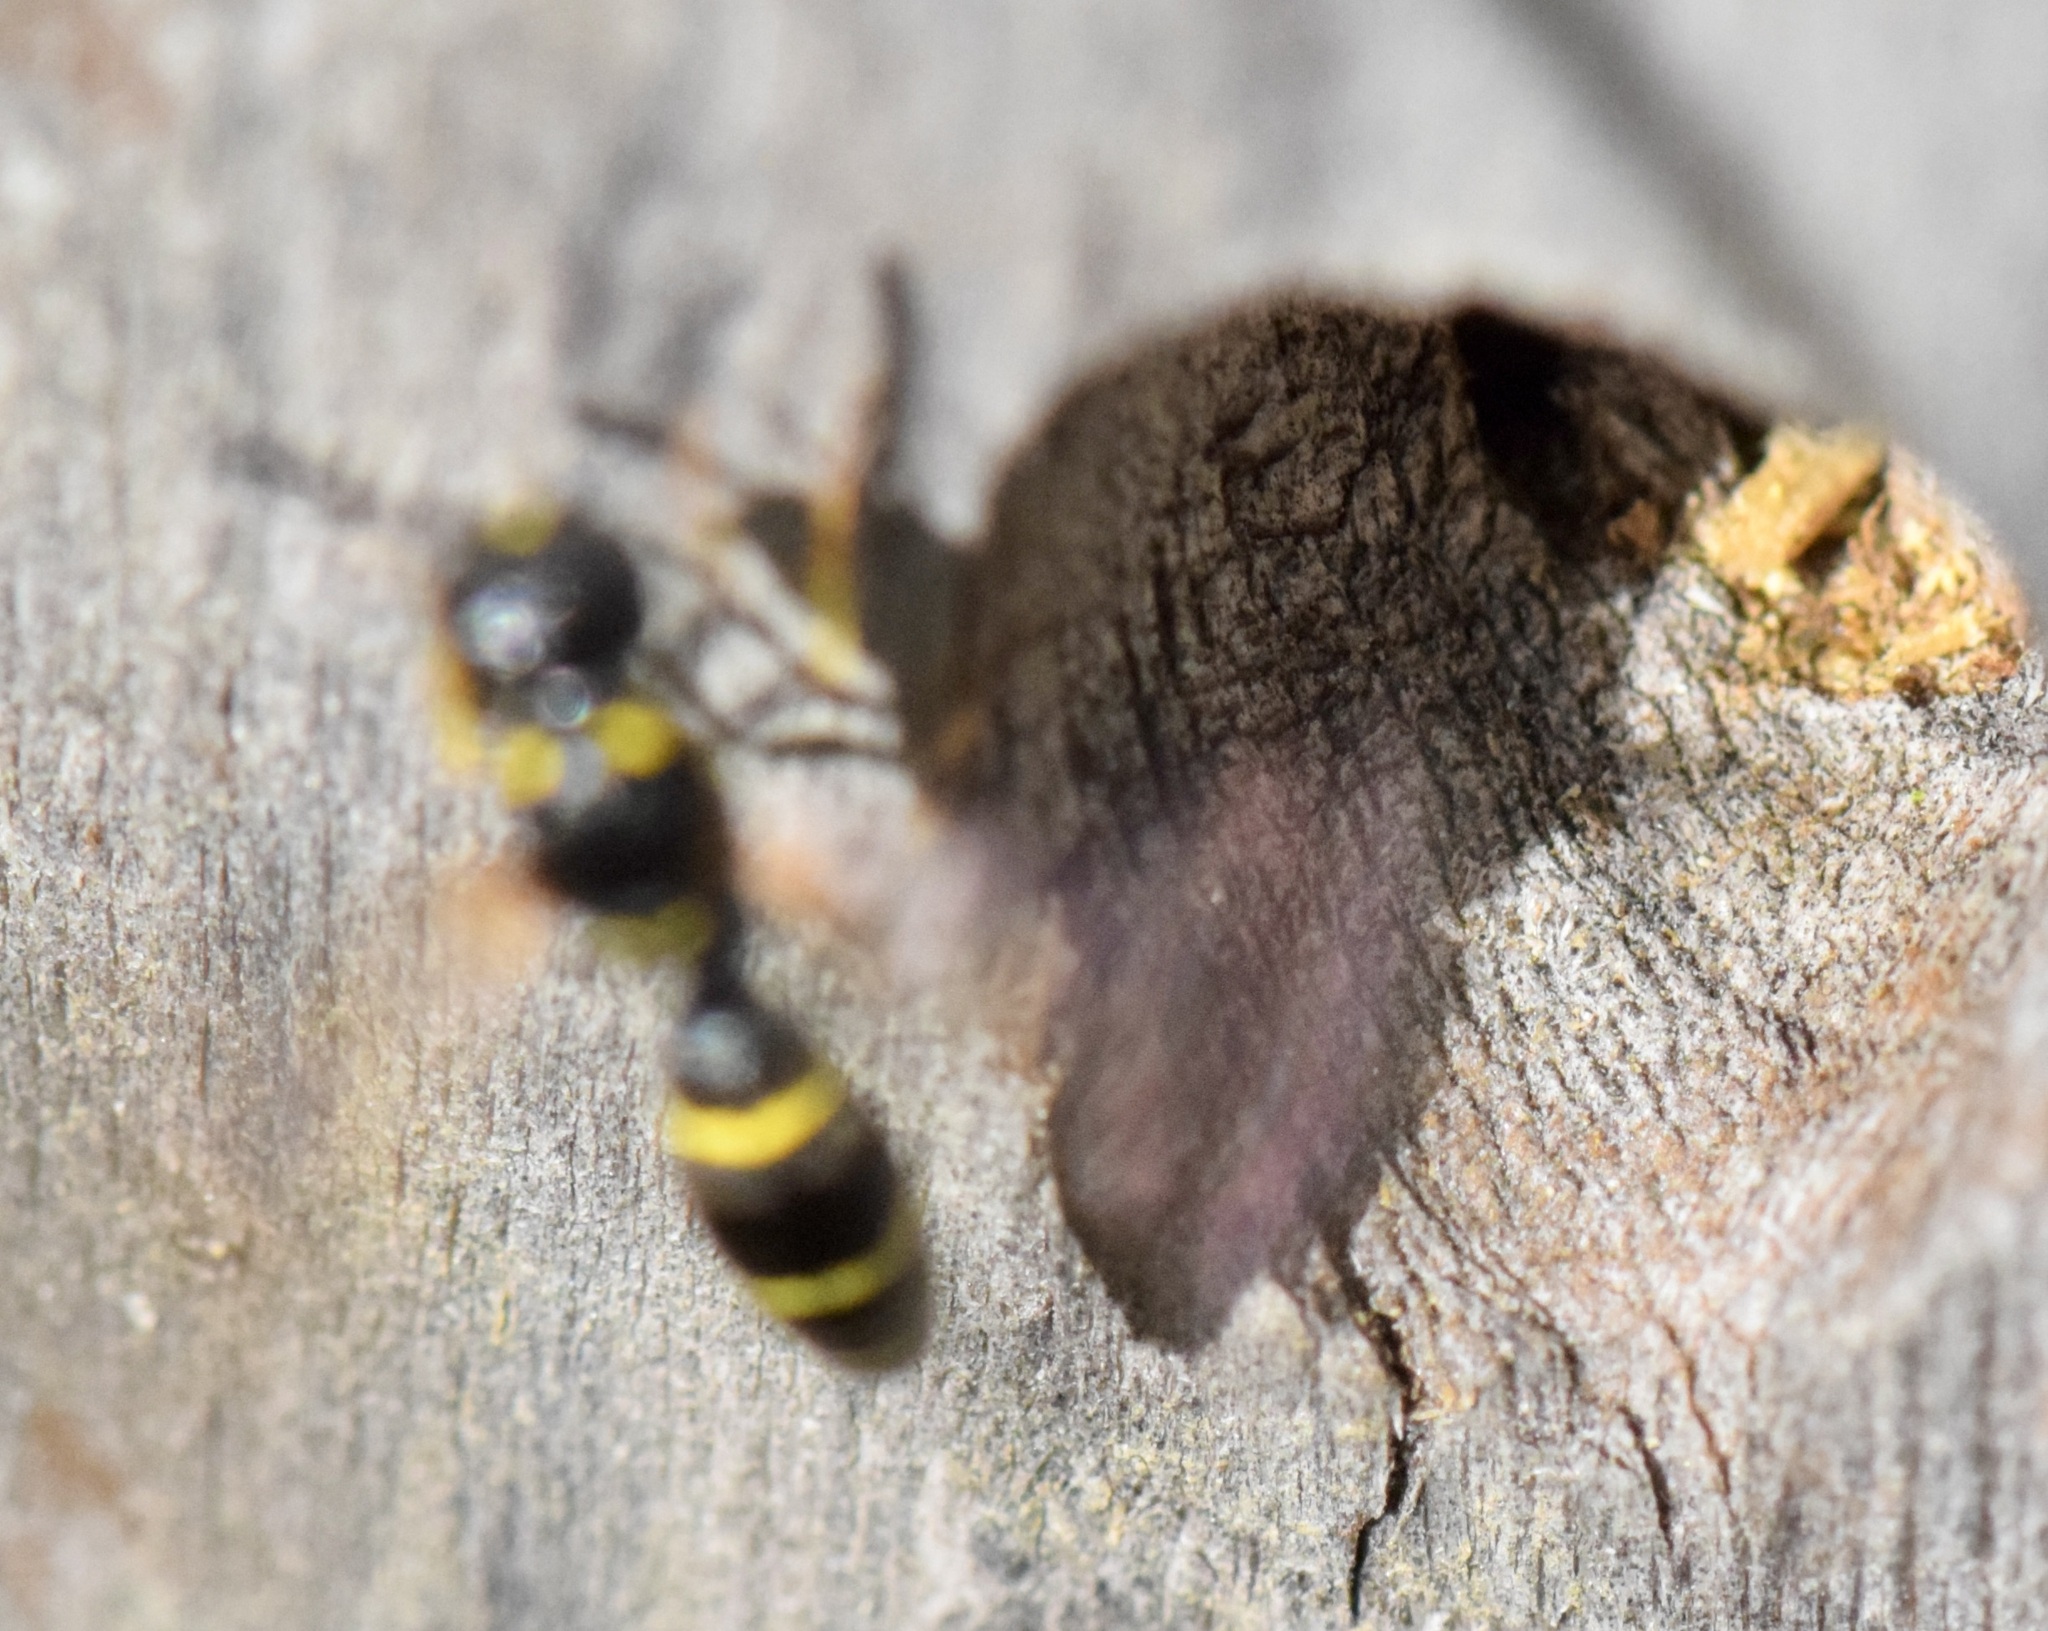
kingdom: Animalia
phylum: Arthropoda
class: Insecta
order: Hymenoptera
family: Eumenidae
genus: Symmorphus
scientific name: Symmorphus
